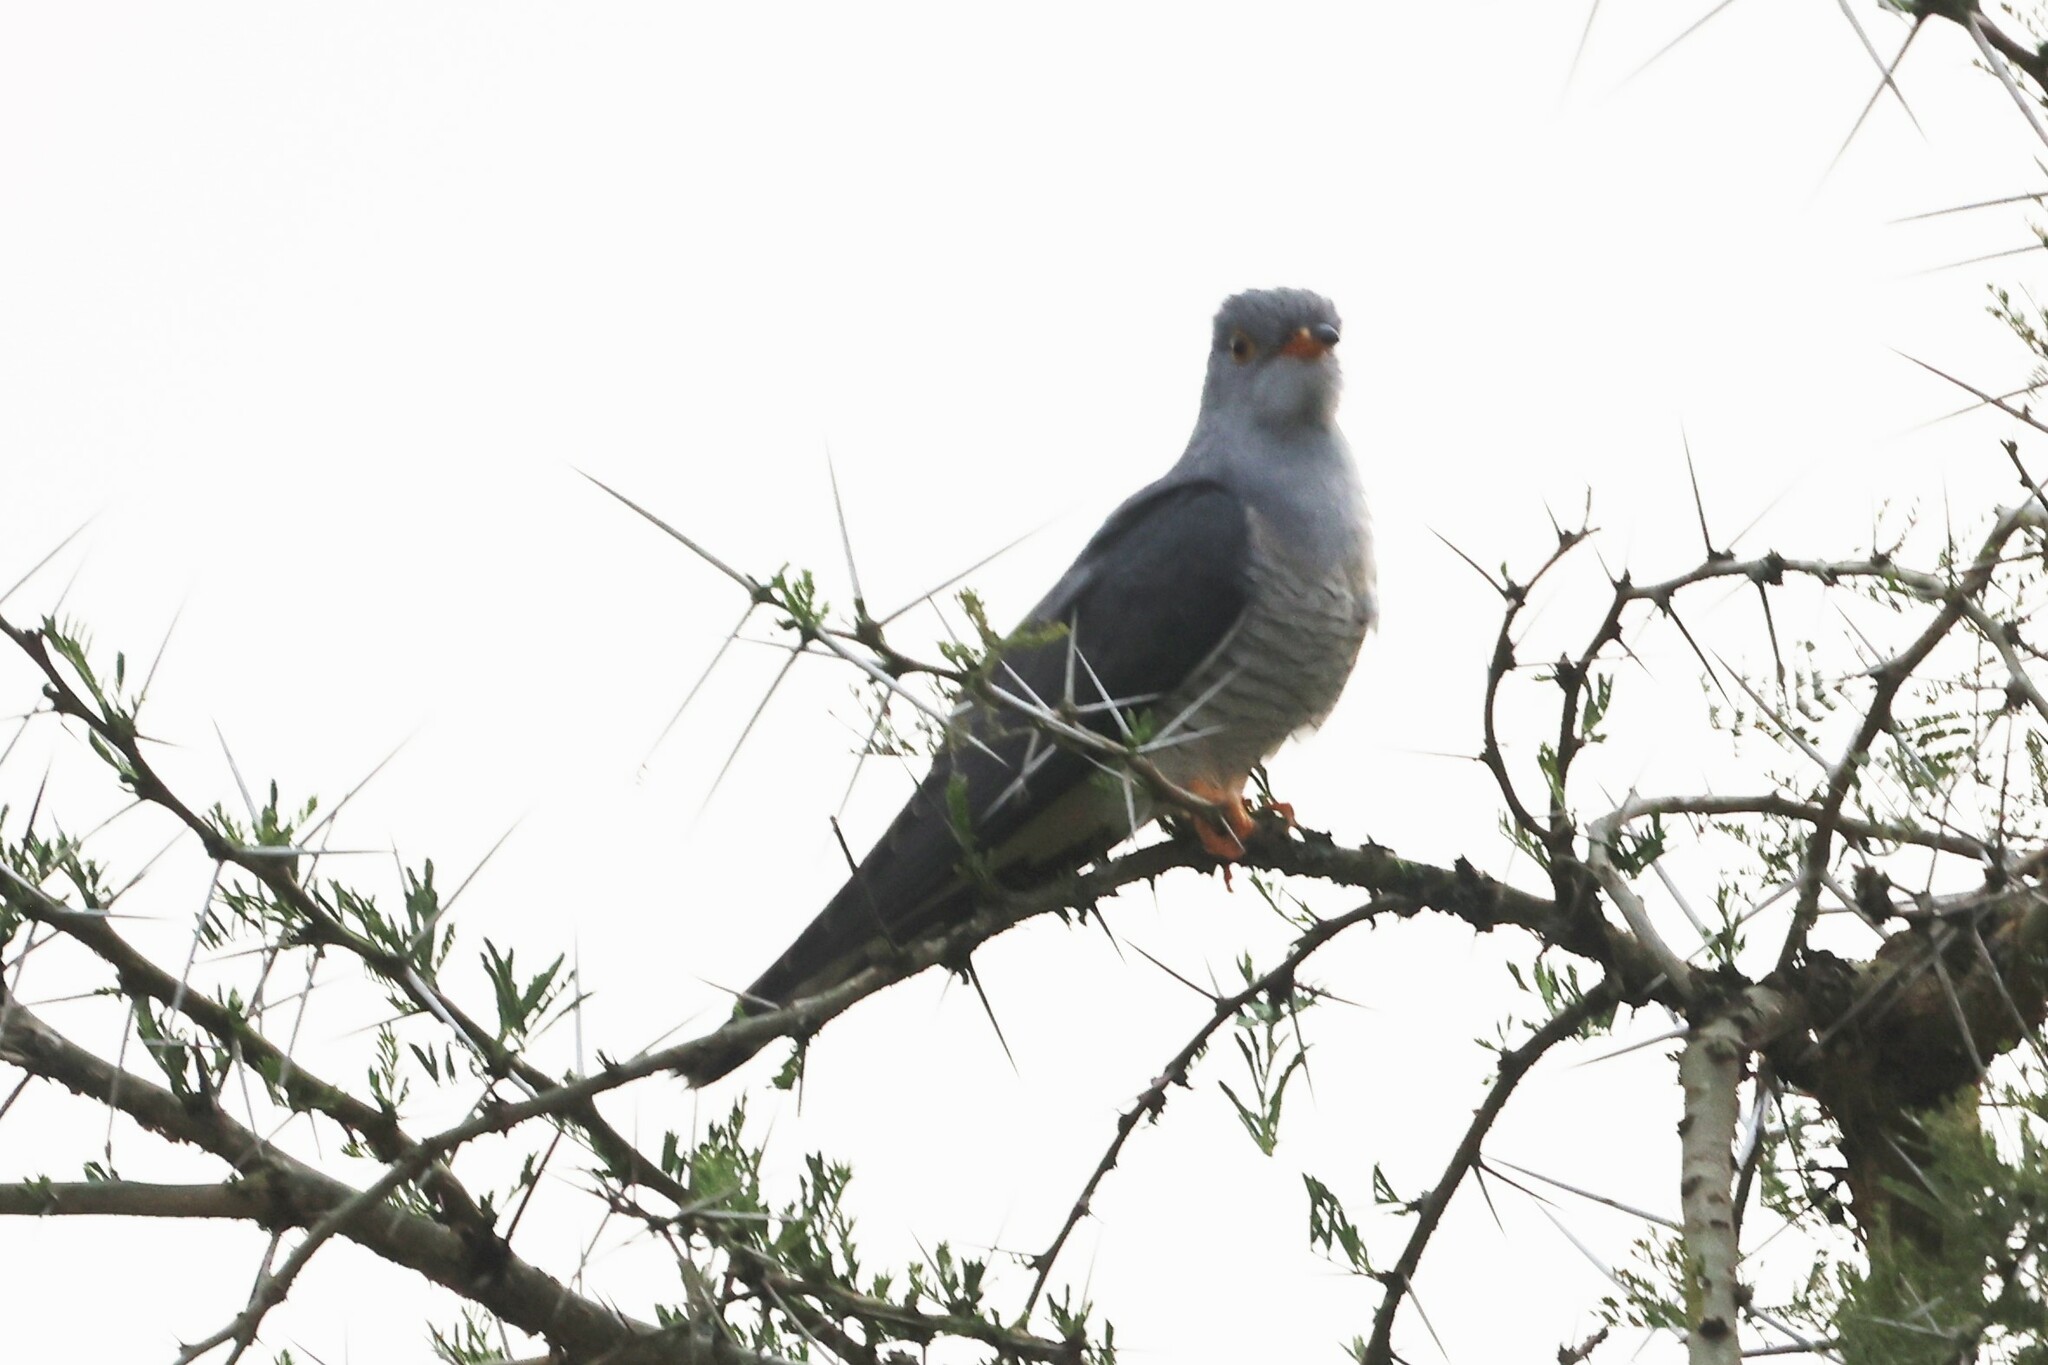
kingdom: Animalia
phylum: Chordata
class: Aves
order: Cuculiformes
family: Cuculidae
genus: Cuculus
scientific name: Cuculus gularis
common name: African cuckoo
